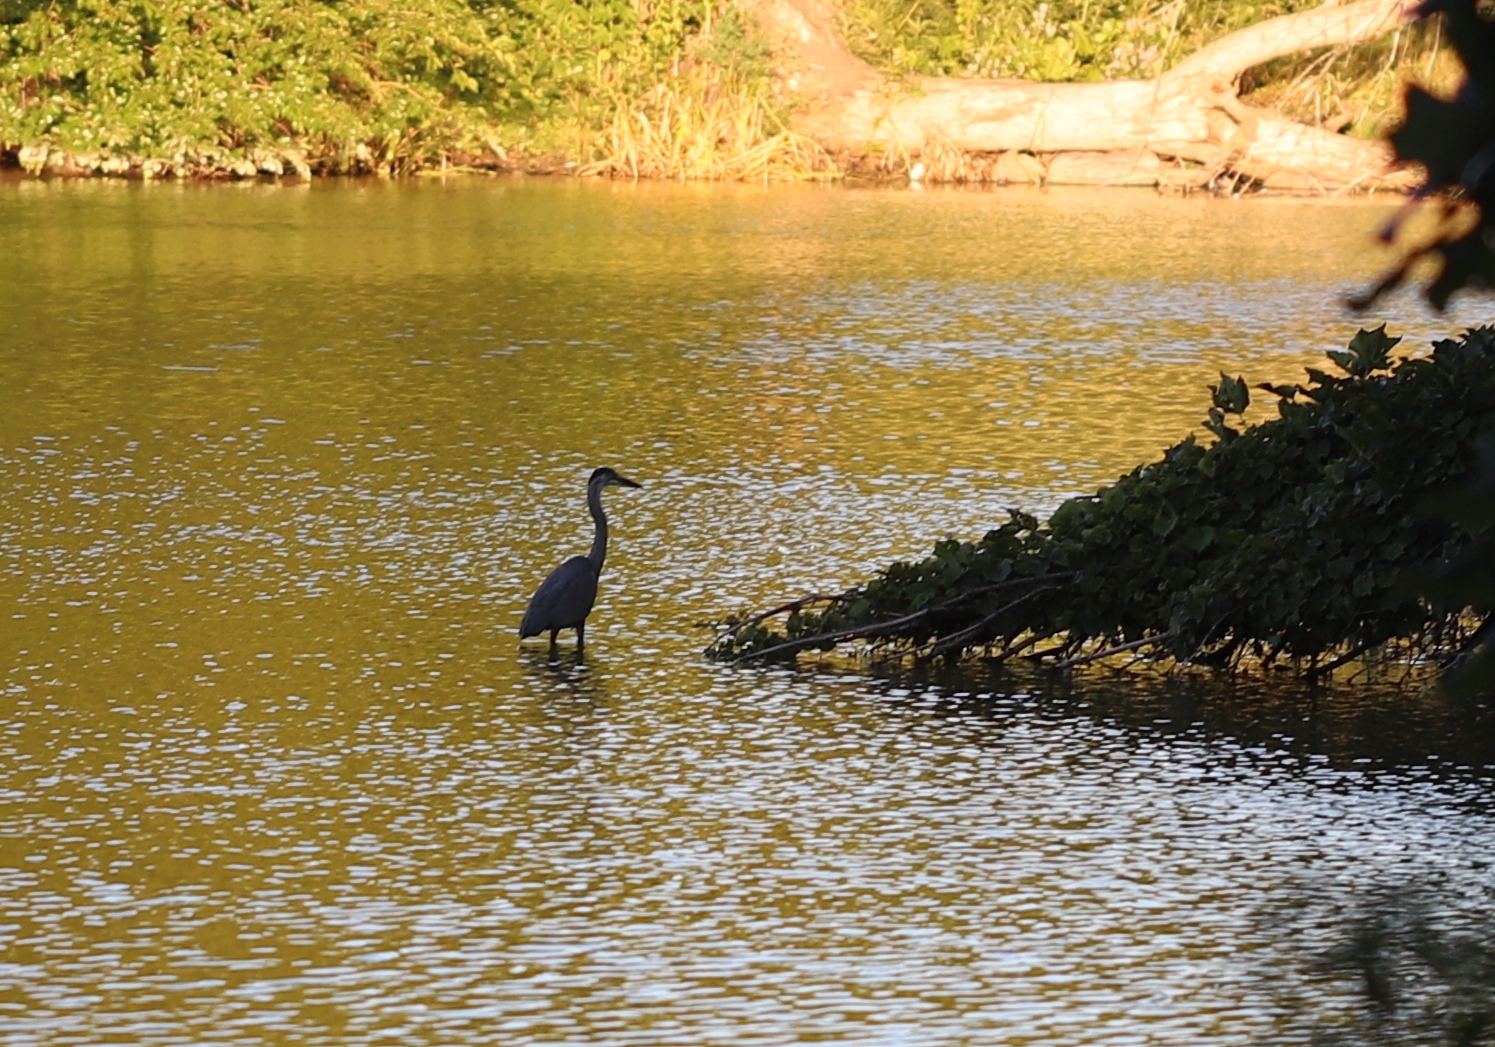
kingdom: Animalia
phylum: Chordata
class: Aves
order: Pelecaniformes
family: Ardeidae
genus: Ardea
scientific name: Ardea herodias
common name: Great blue heron
